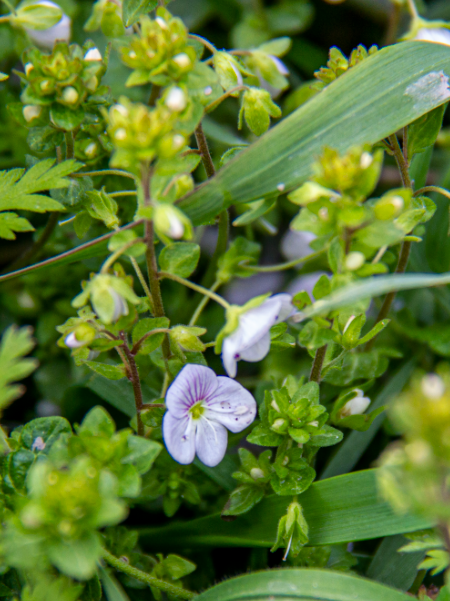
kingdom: Plantae
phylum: Tracheophyta
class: Magnoliopsida
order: Lamiales
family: Plantaginaceae
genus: Veronica
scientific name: Veronica peduncularis
